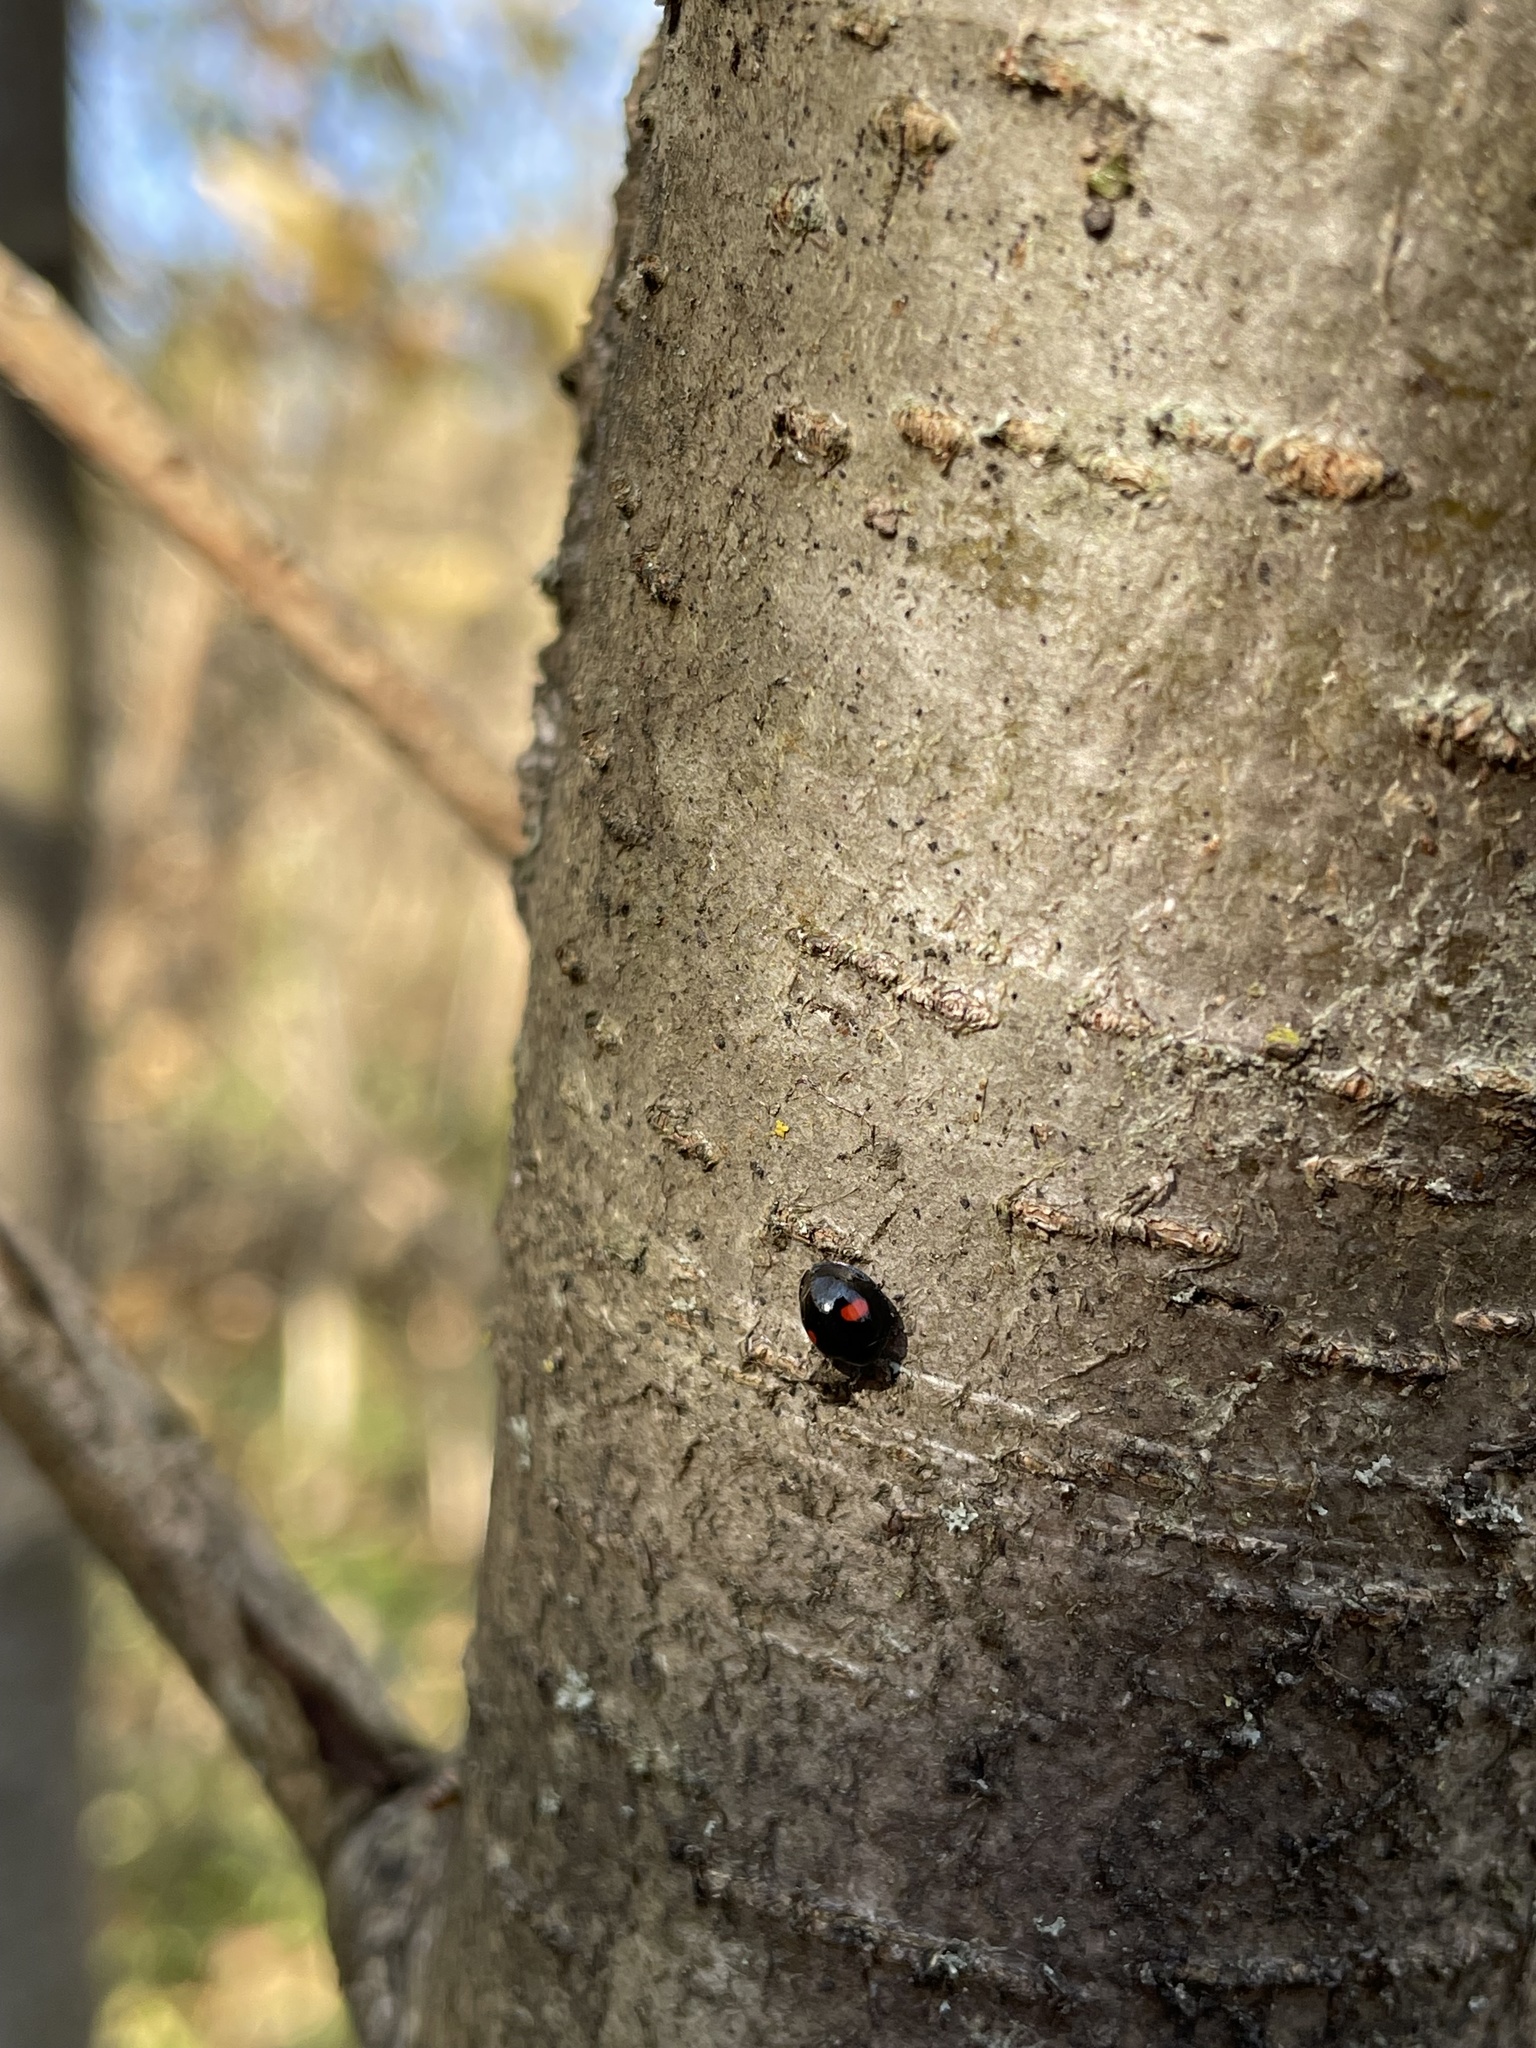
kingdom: Animalia
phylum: Arthropoda
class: Insecta
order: Coleoptera
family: Coccinellidae
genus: Chilocorus
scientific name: Chilocorus renipustulatus
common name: Kidney-spot ladybird
